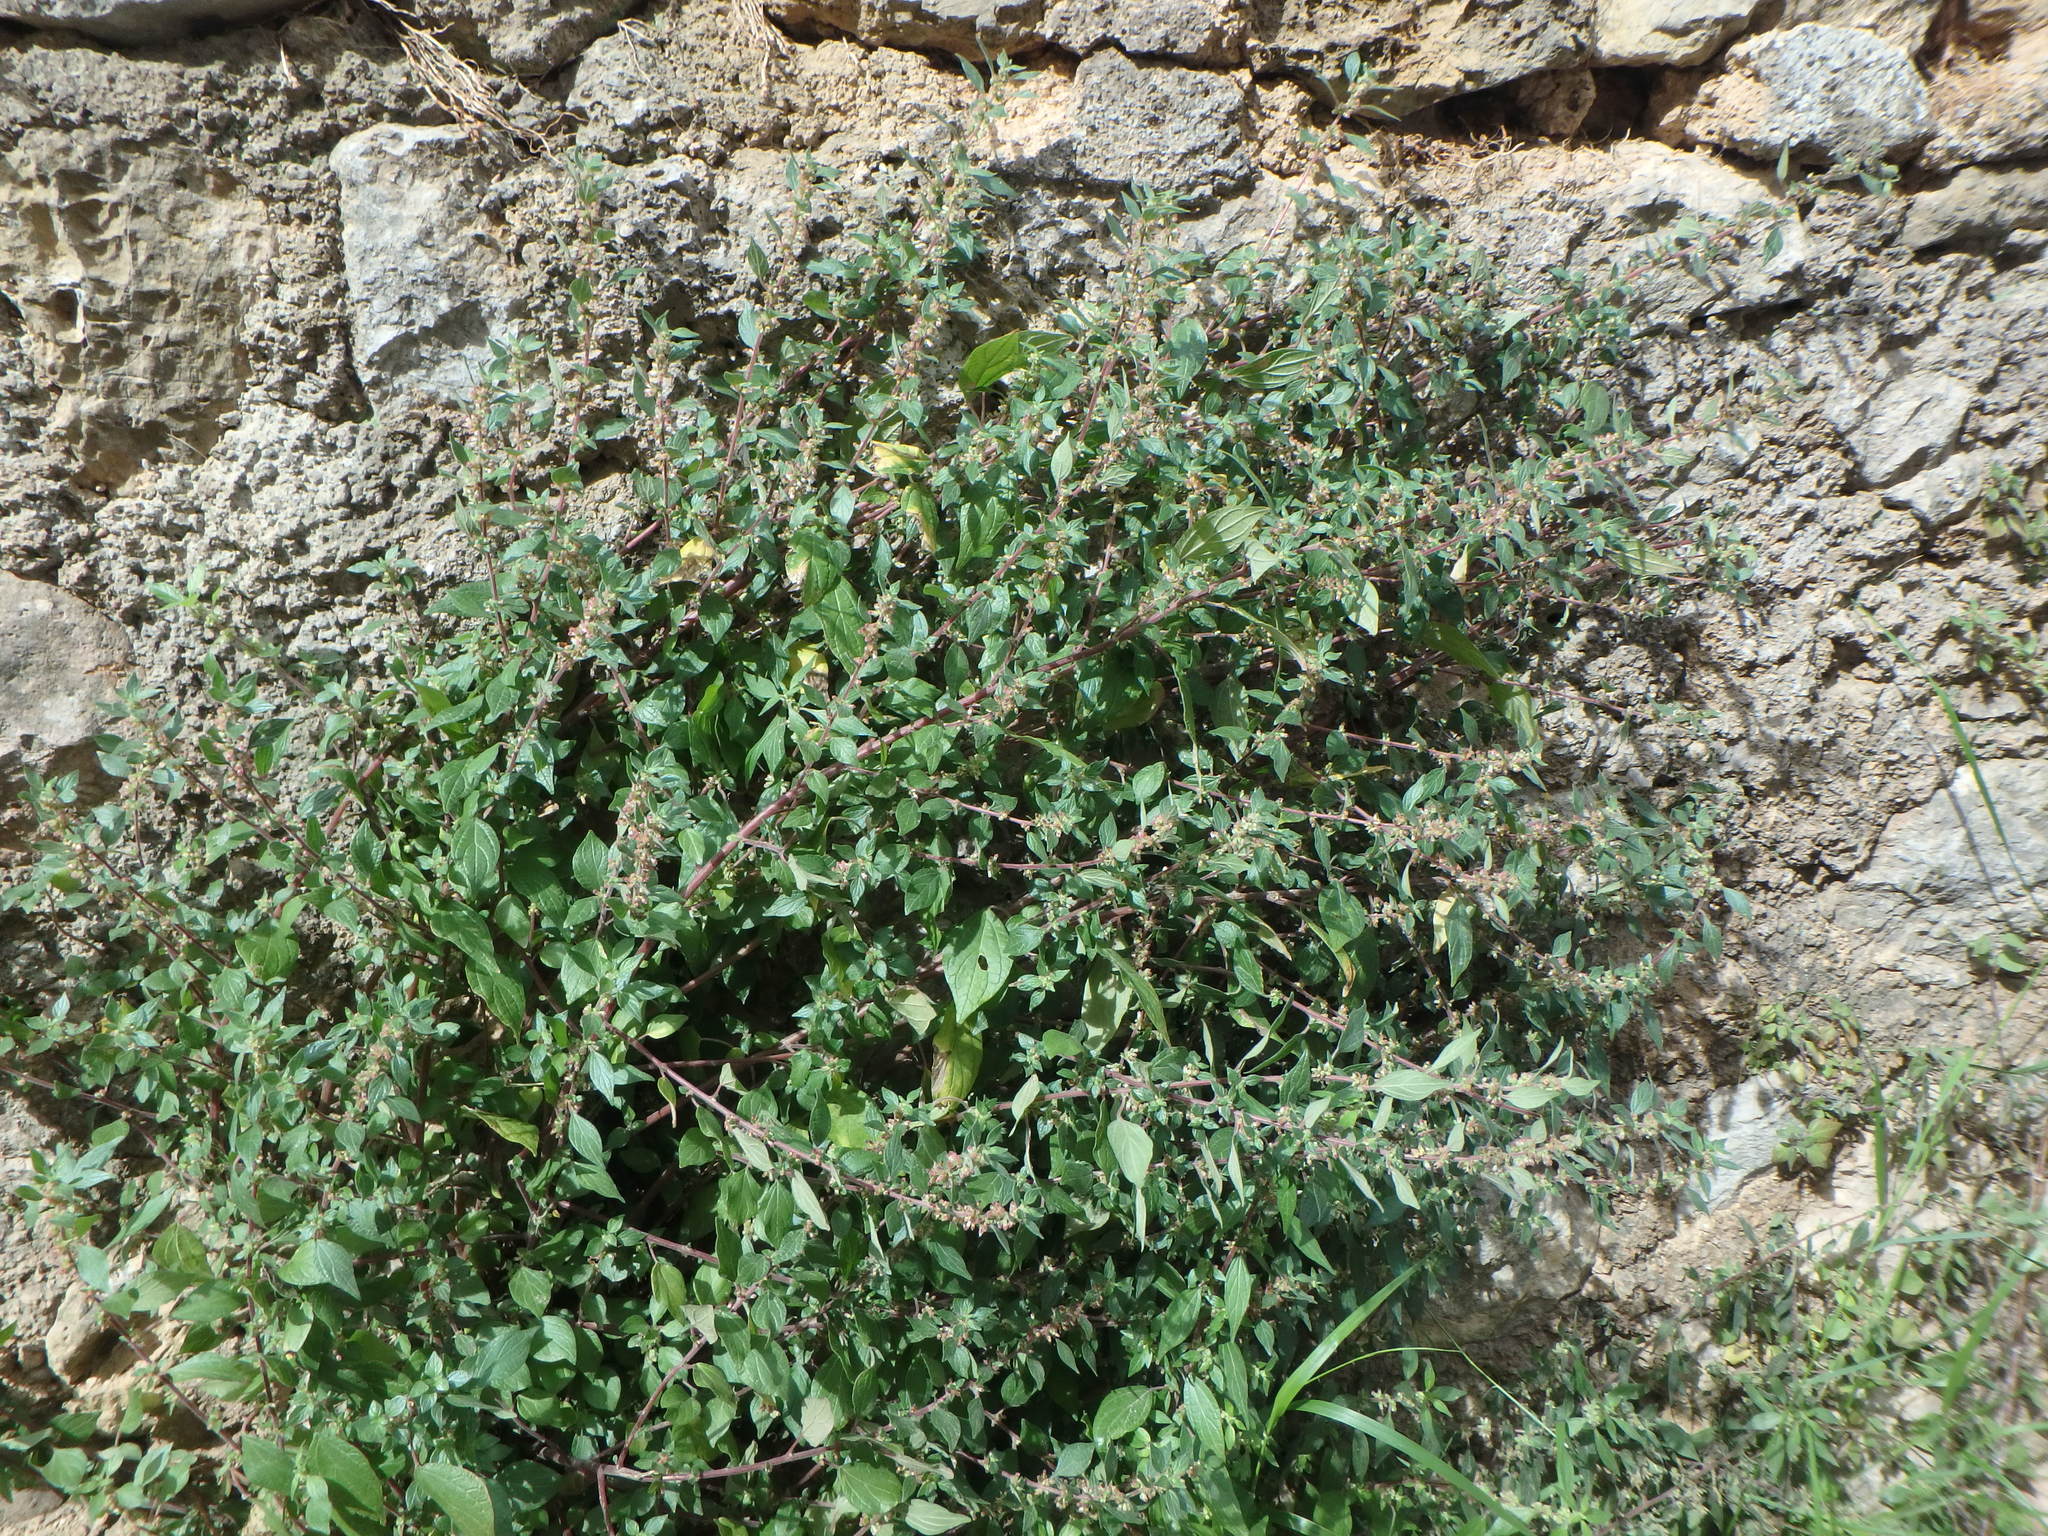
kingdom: Plantae
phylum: Tracheophyta
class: Magnoliopsida
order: Rosales
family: Urticaceae
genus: Parietaria
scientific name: Parietaria judaica
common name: Pellitory-of-the-wall
